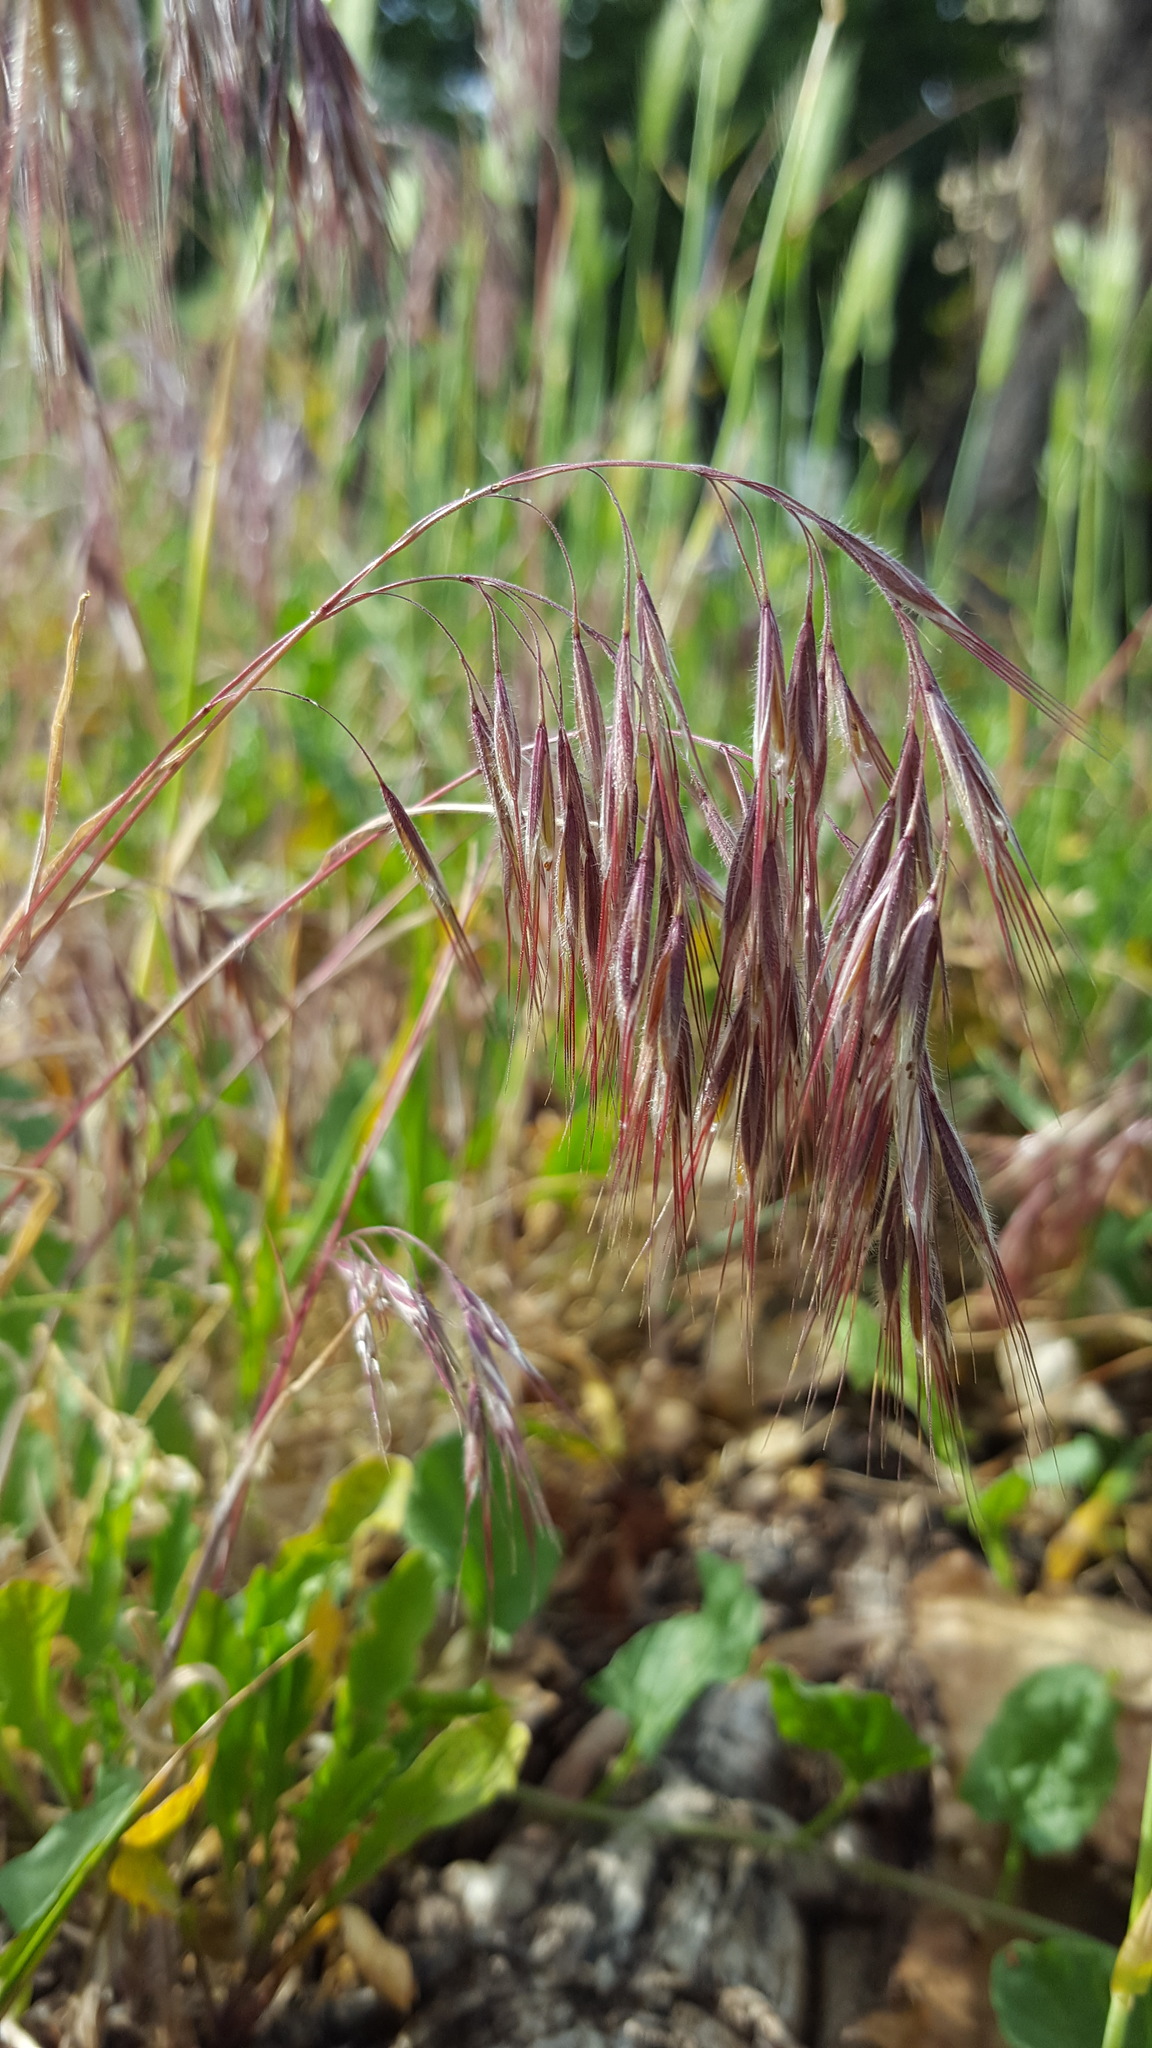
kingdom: Plantae
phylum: Tracheophyta
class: Liliopsida
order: Poales
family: Poaceae
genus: Bromus
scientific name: Bromus tectorum
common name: Cheatgrass
